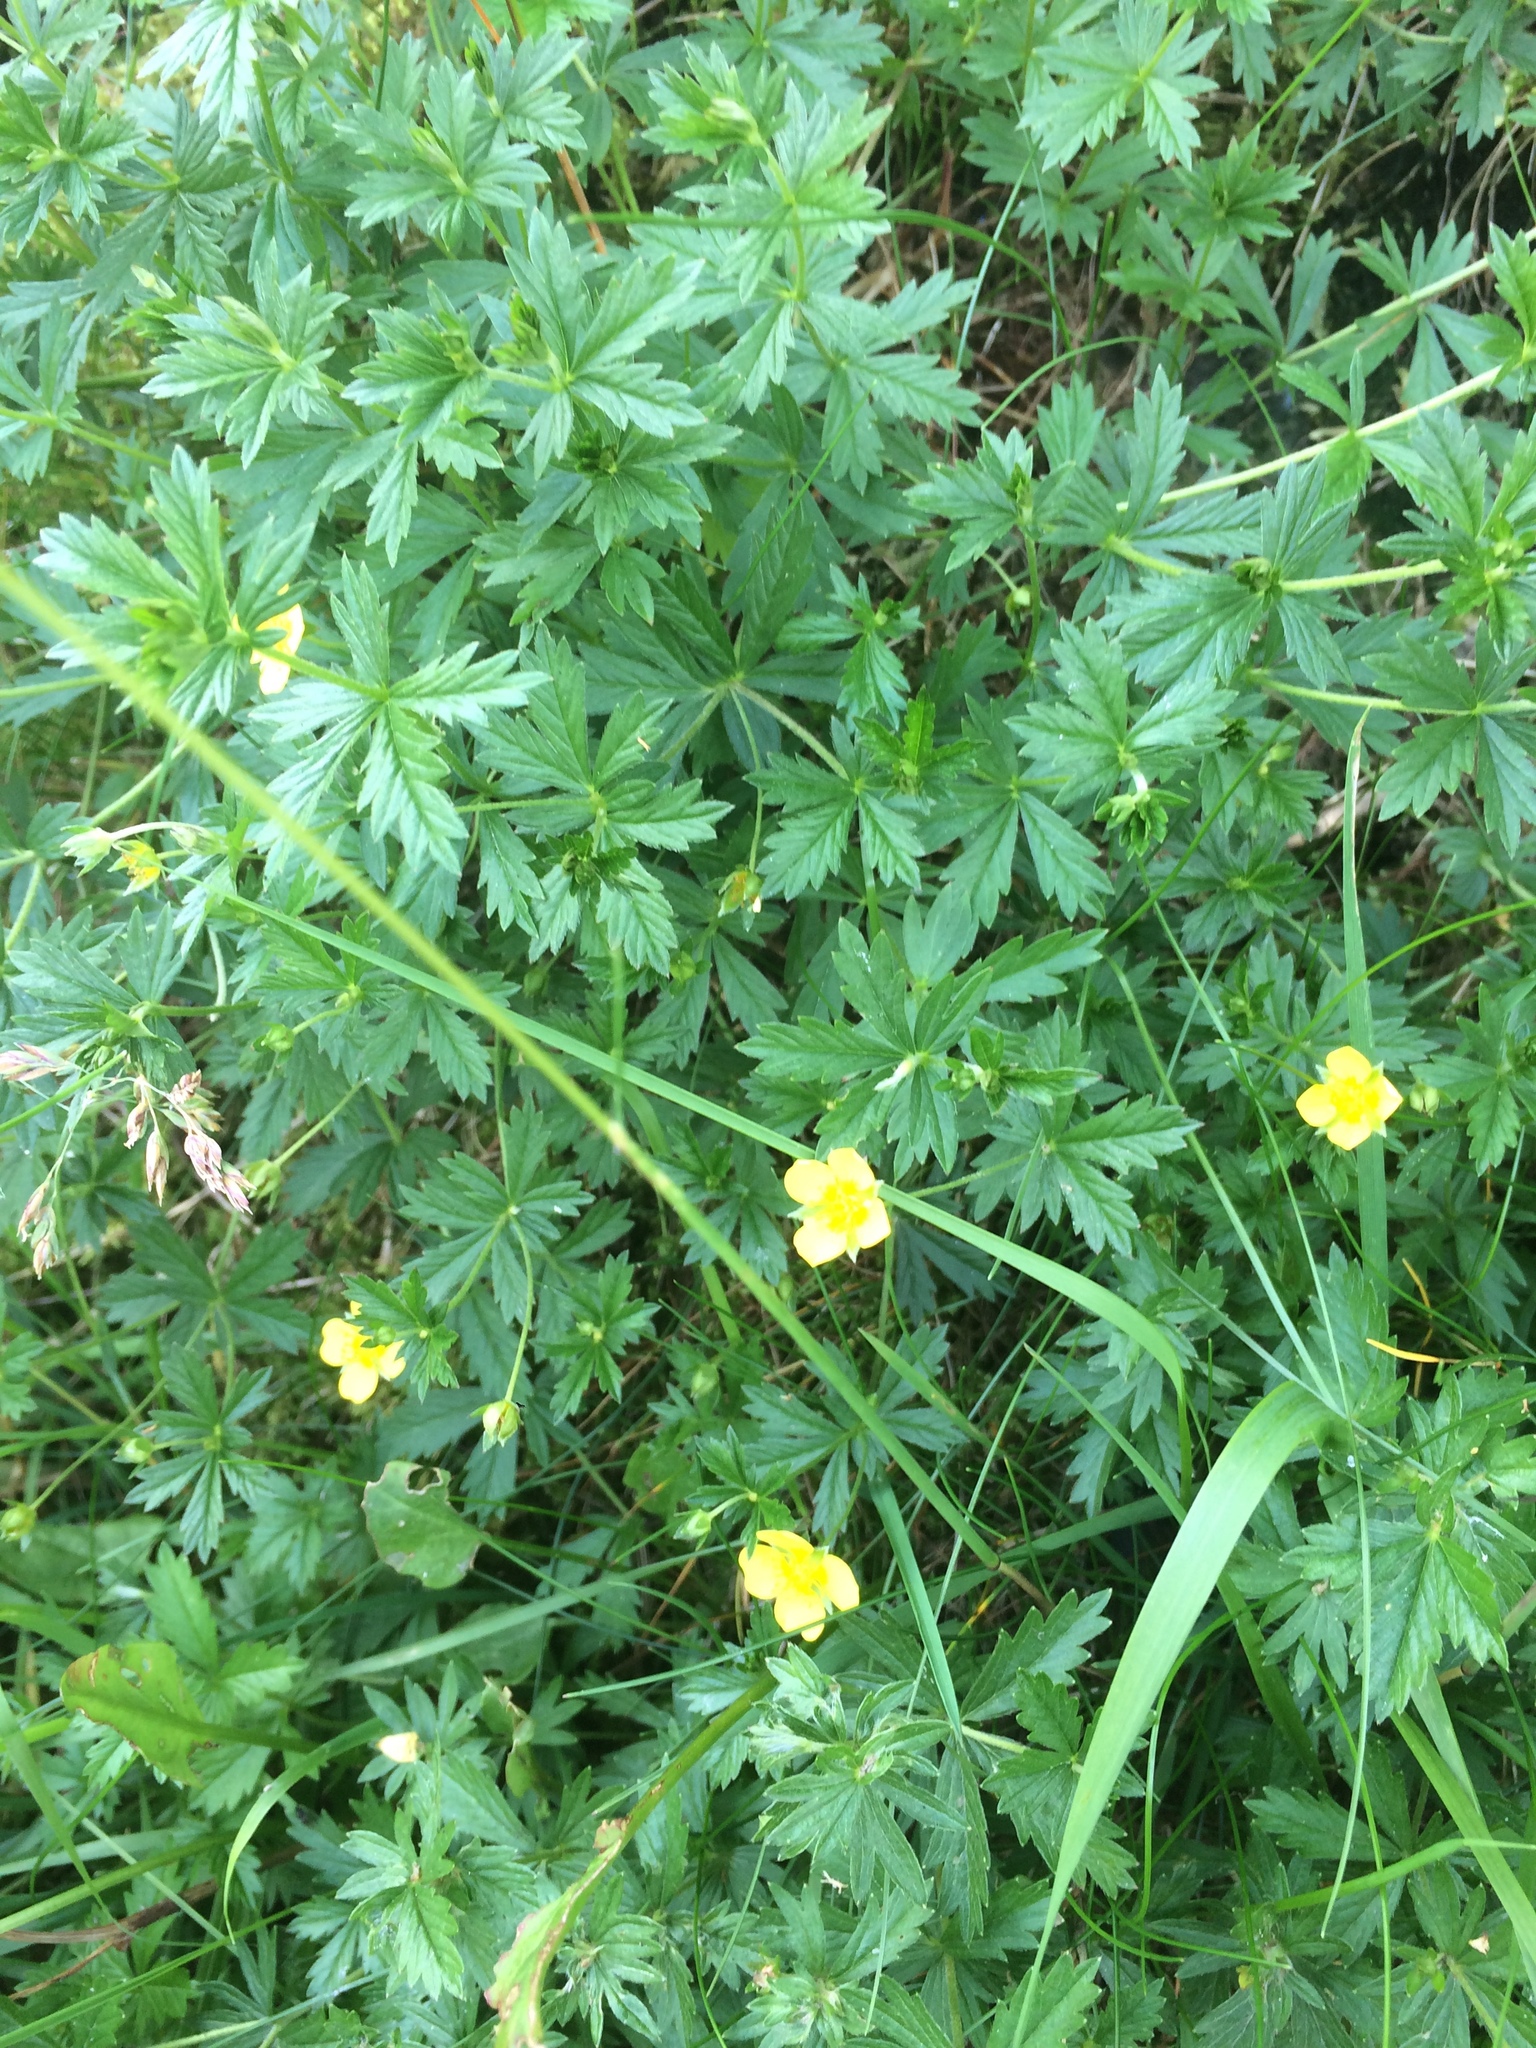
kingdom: Plantae
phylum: Tracheophyta
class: Magnoliopsida
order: Rosales
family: Rosaceae
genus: Potentilla
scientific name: Potentilla erecta
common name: Tormentil
